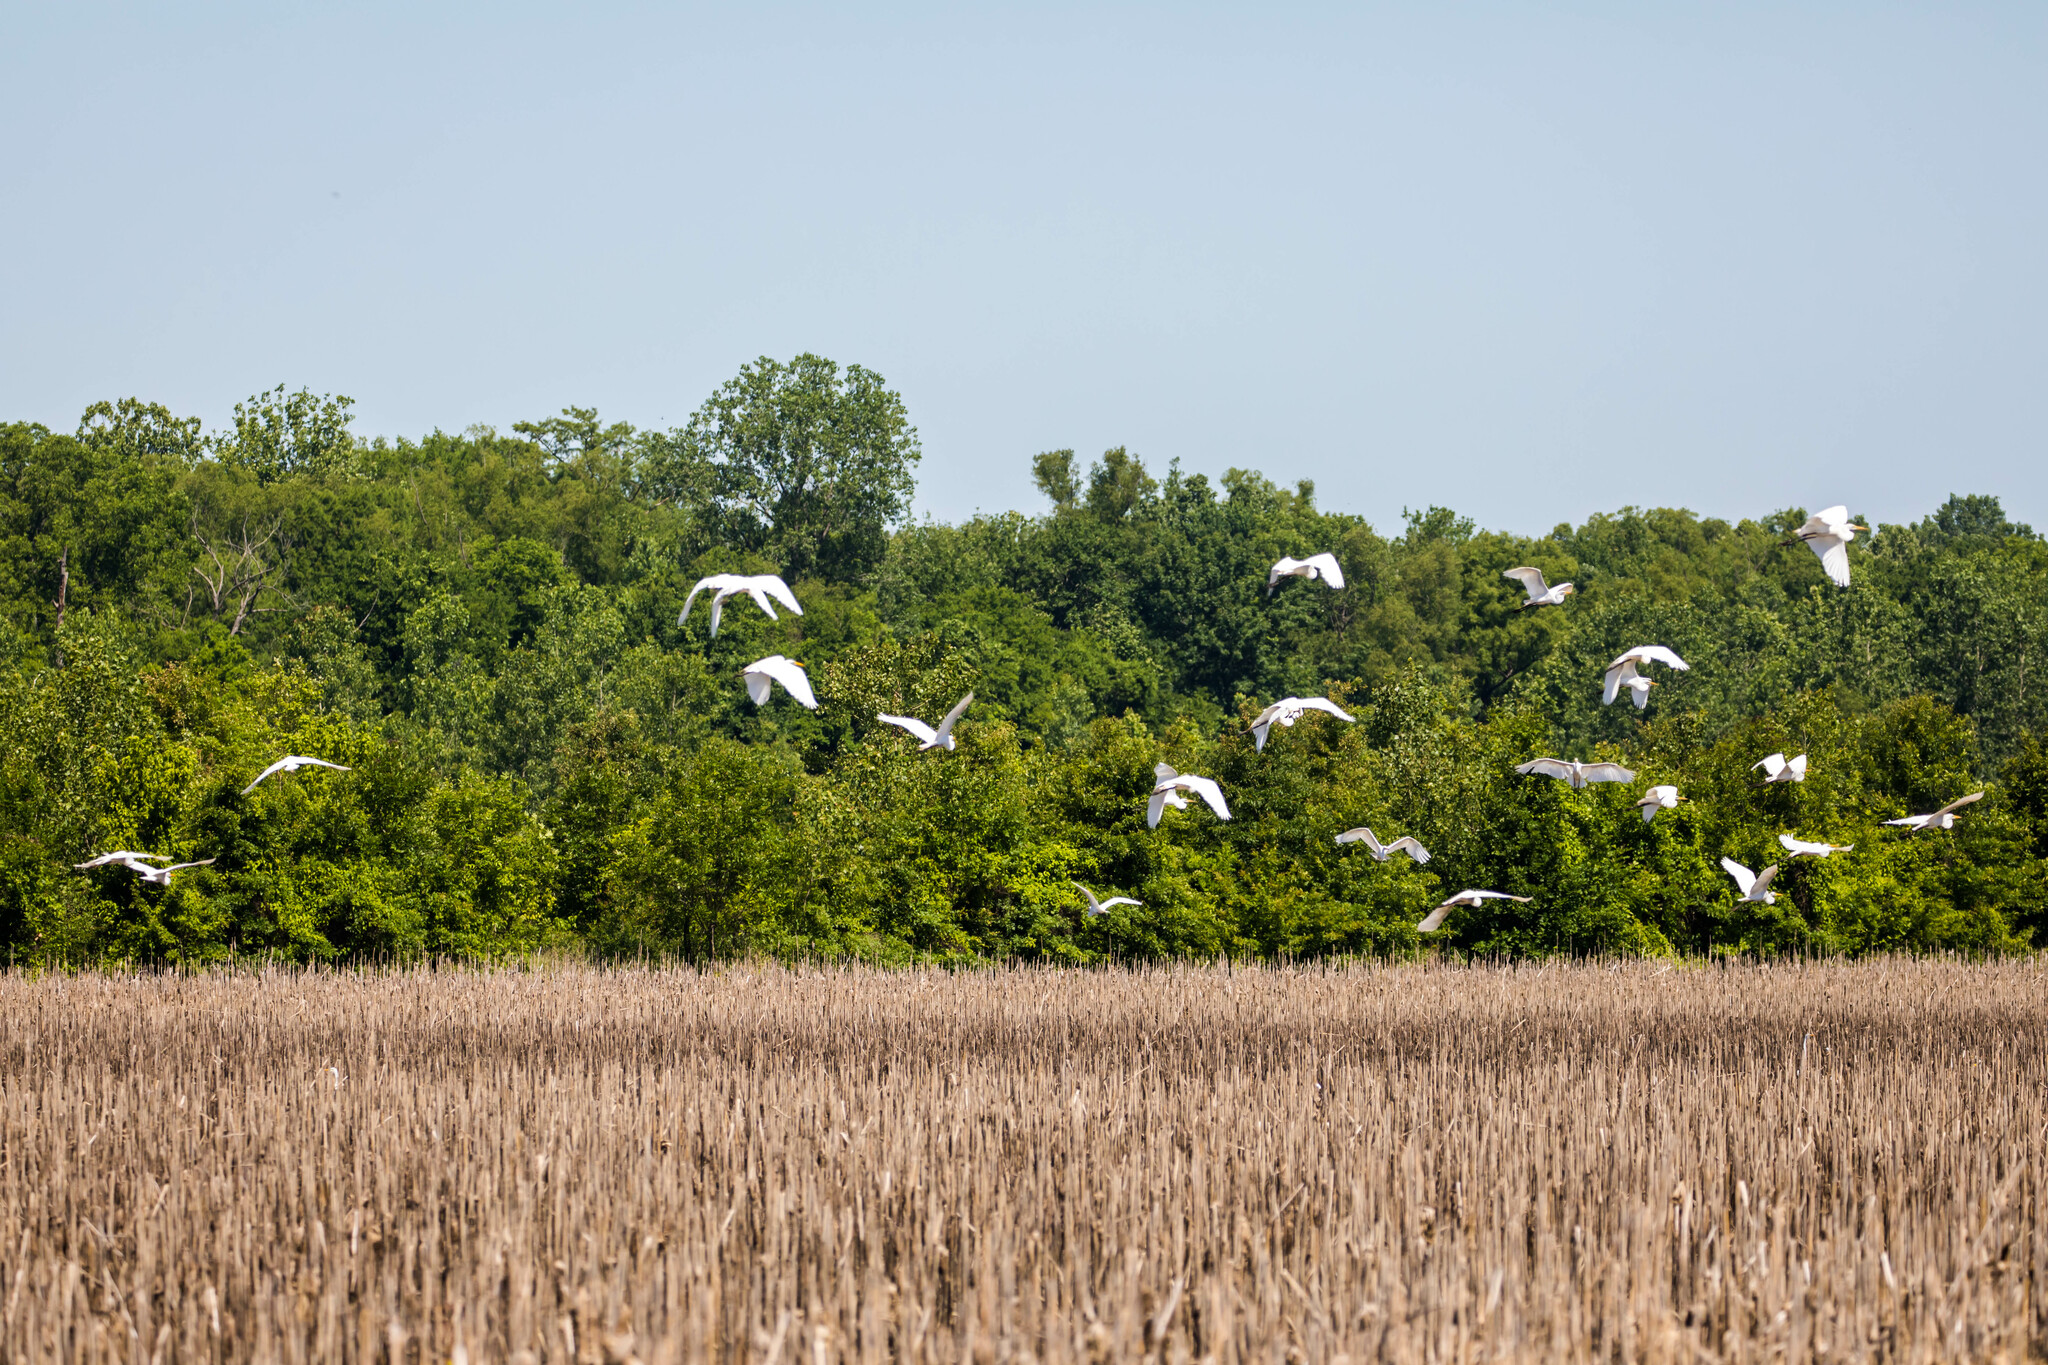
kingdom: Animalia
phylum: Chordata
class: Aves
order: Pelecaniformes
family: Ardeidae
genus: Ardea
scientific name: Ardea alba
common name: Great egret
